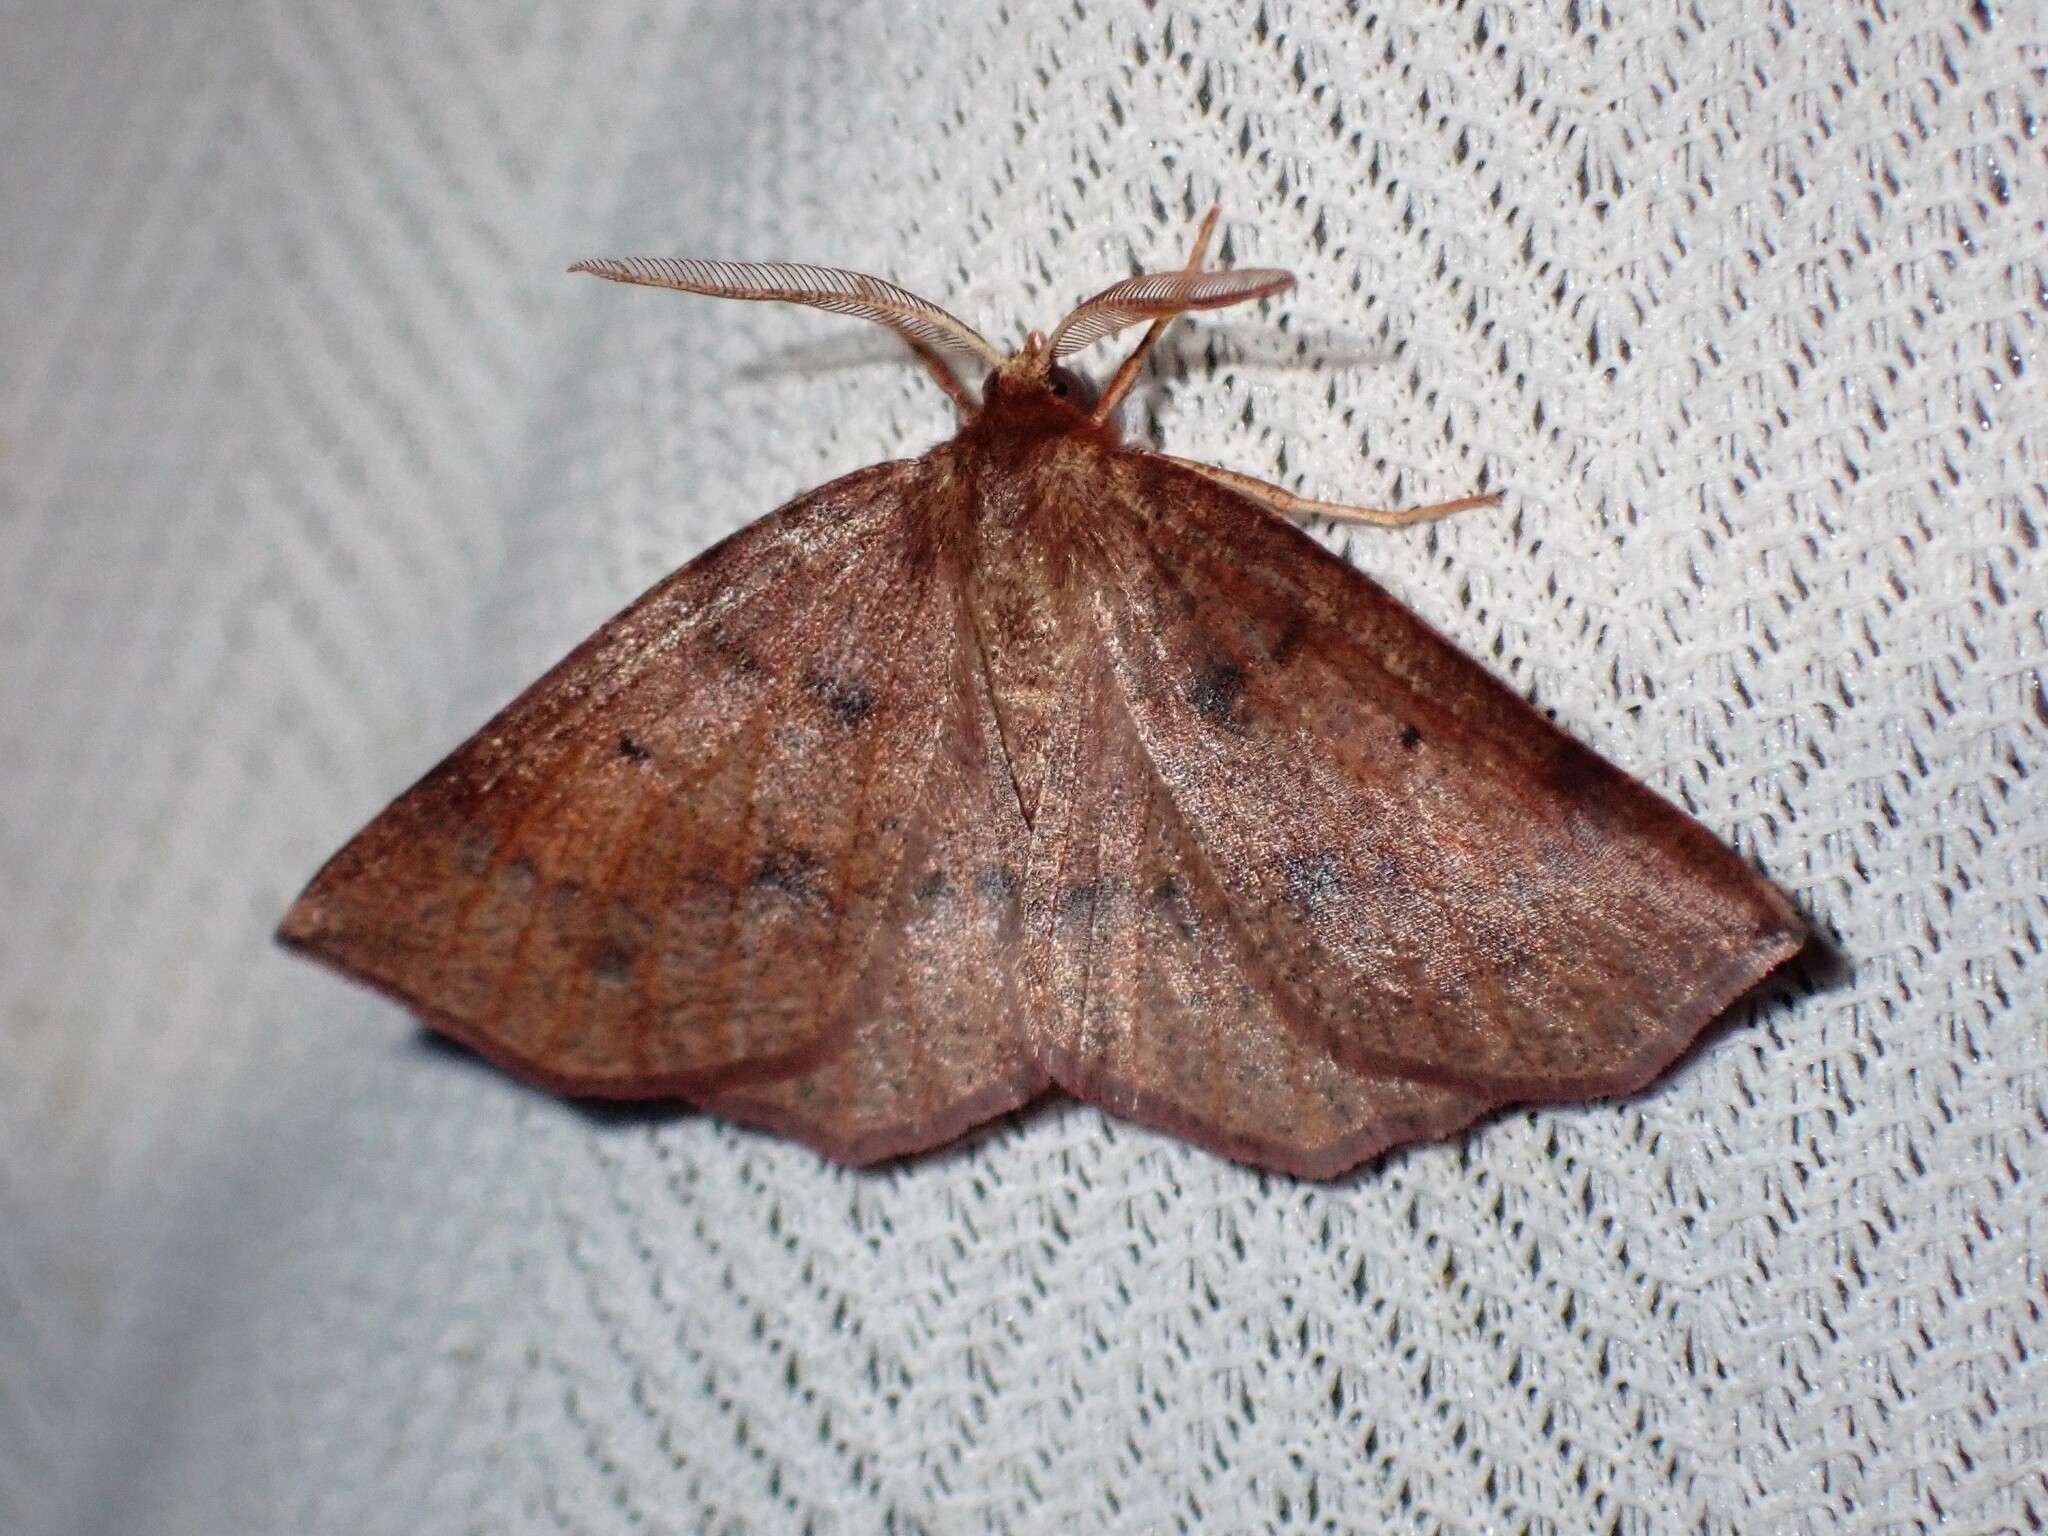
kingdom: Animalia
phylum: Arthropoda
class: Insecta
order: Lepidoptera
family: Geometridae
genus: Metarranthis
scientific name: Metarranthis duaria
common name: Ruddy metarranthis moth
